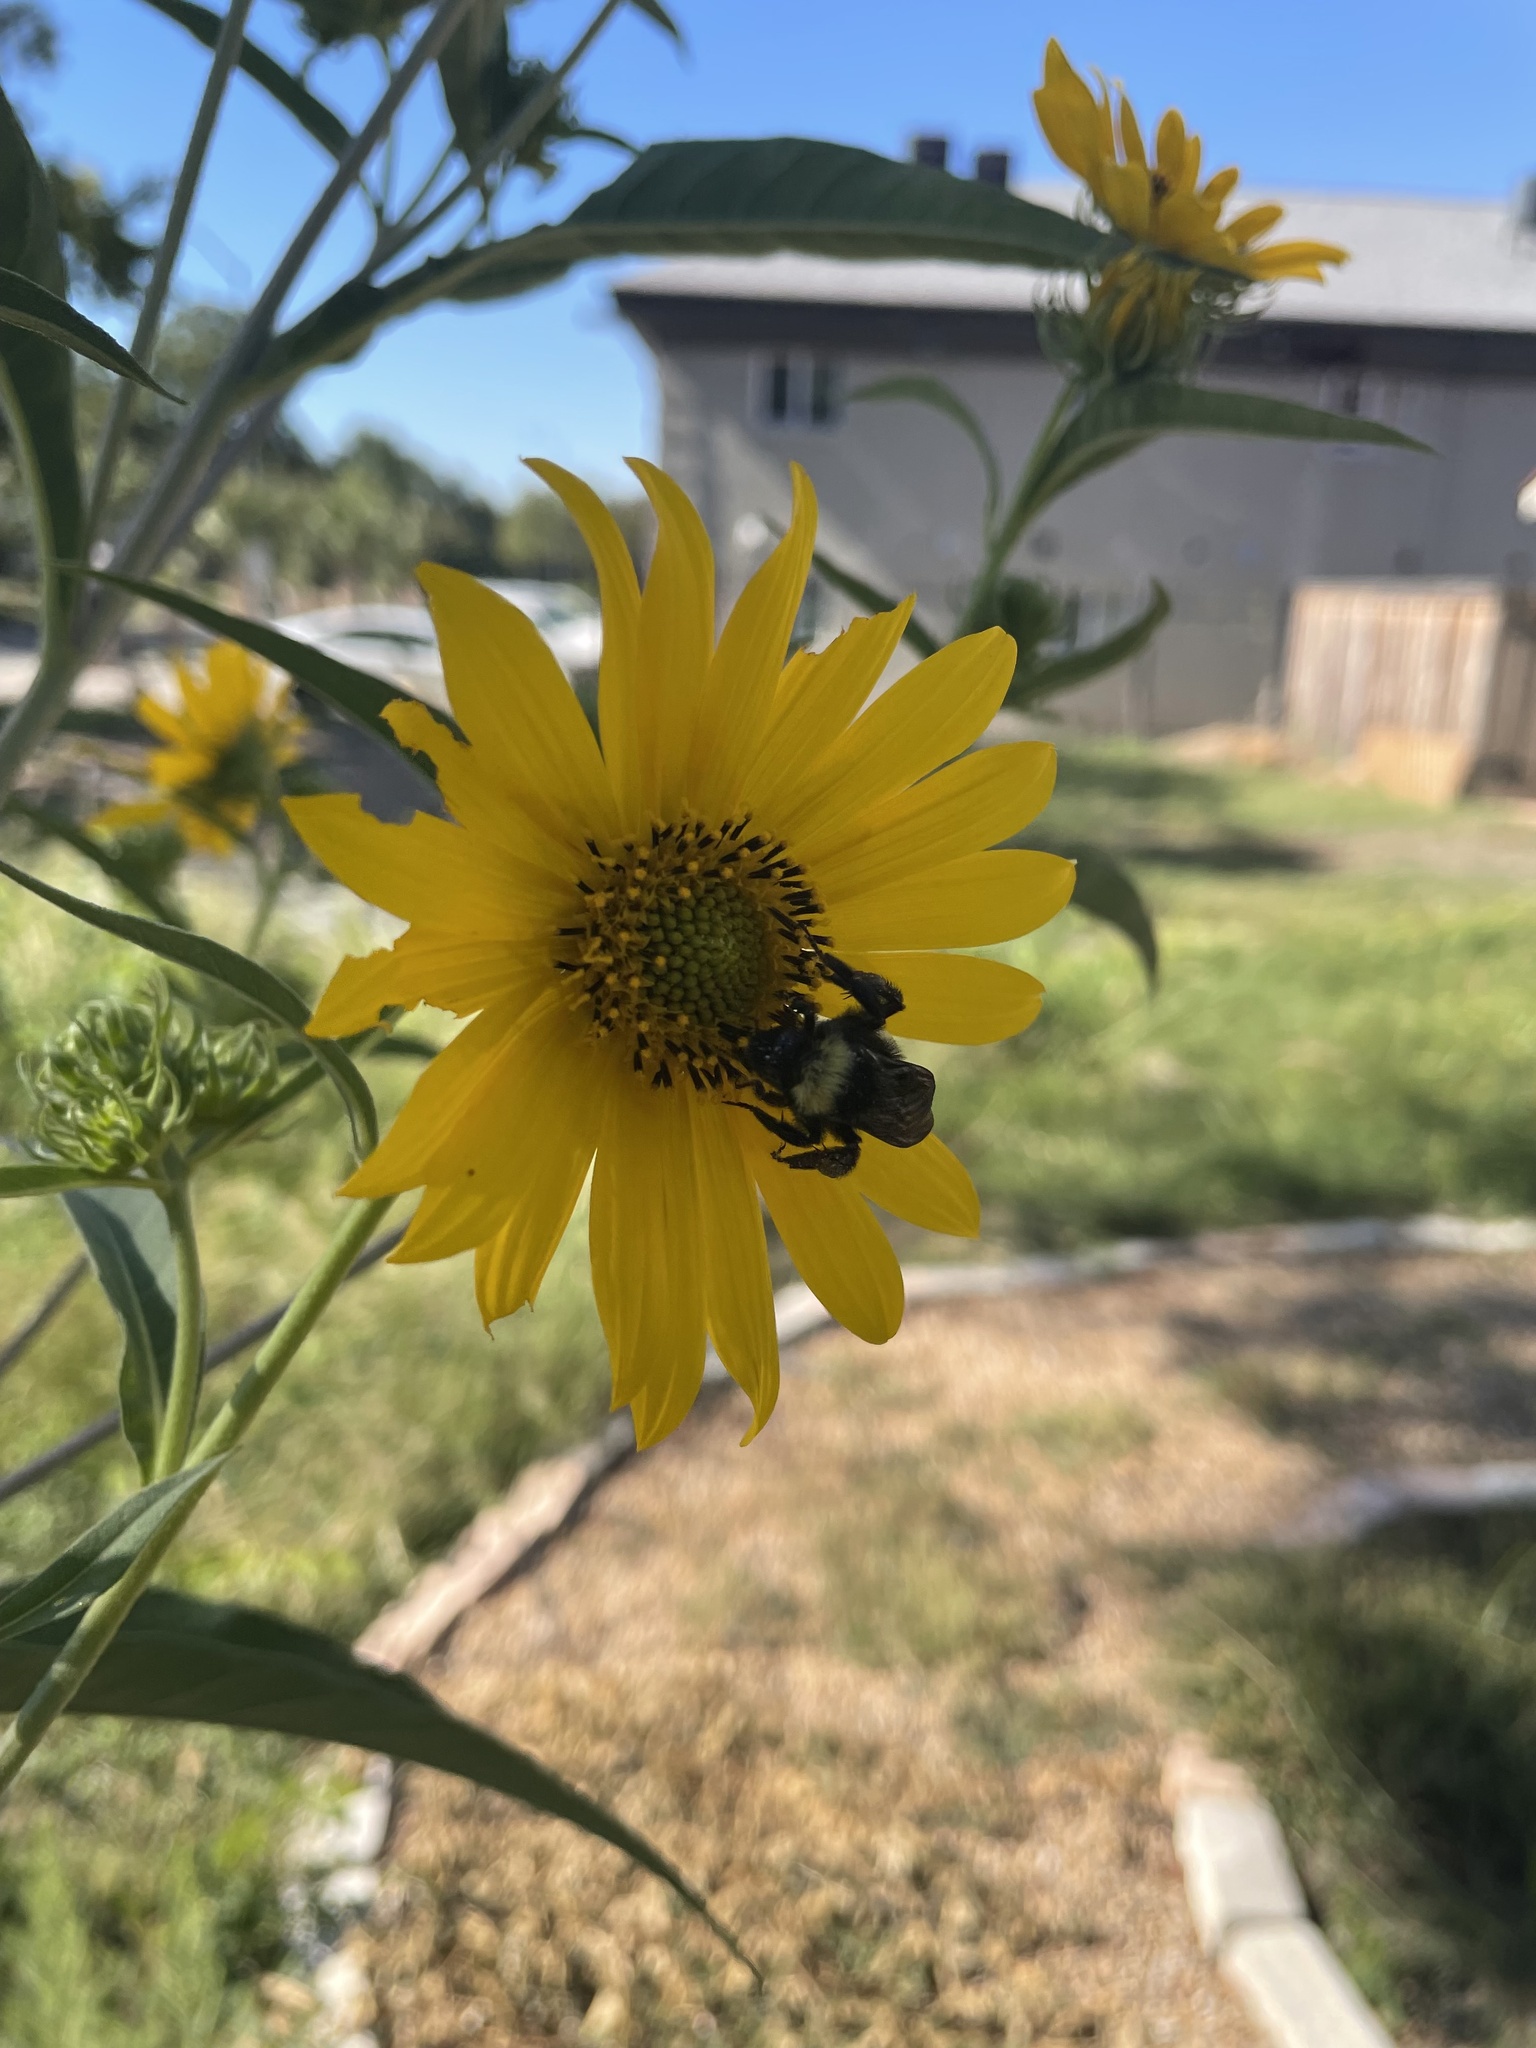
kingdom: Animalia
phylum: Arthropoda
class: Insecta
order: Hymenoptera
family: Apidae
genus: Bombus
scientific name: Bombus pensylvanicus
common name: Bumble bee
